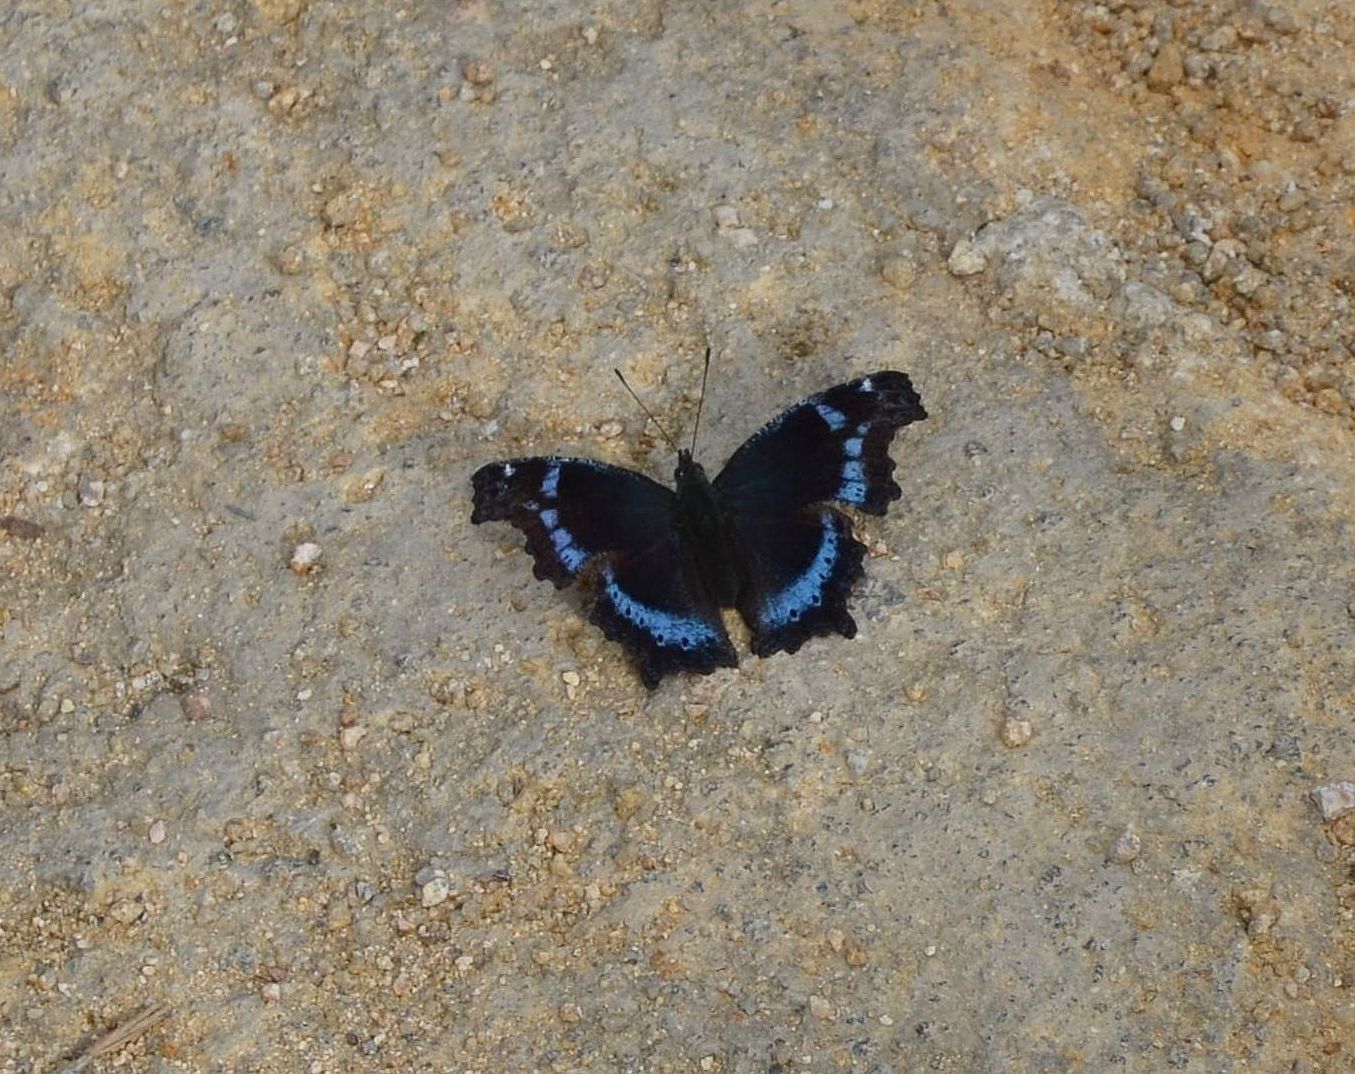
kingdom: Animalia
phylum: Arthropoda
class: Insecta
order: Lepidoptera
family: Nymphalidae
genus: Vanessa
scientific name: Vanessa Kaniska canace
